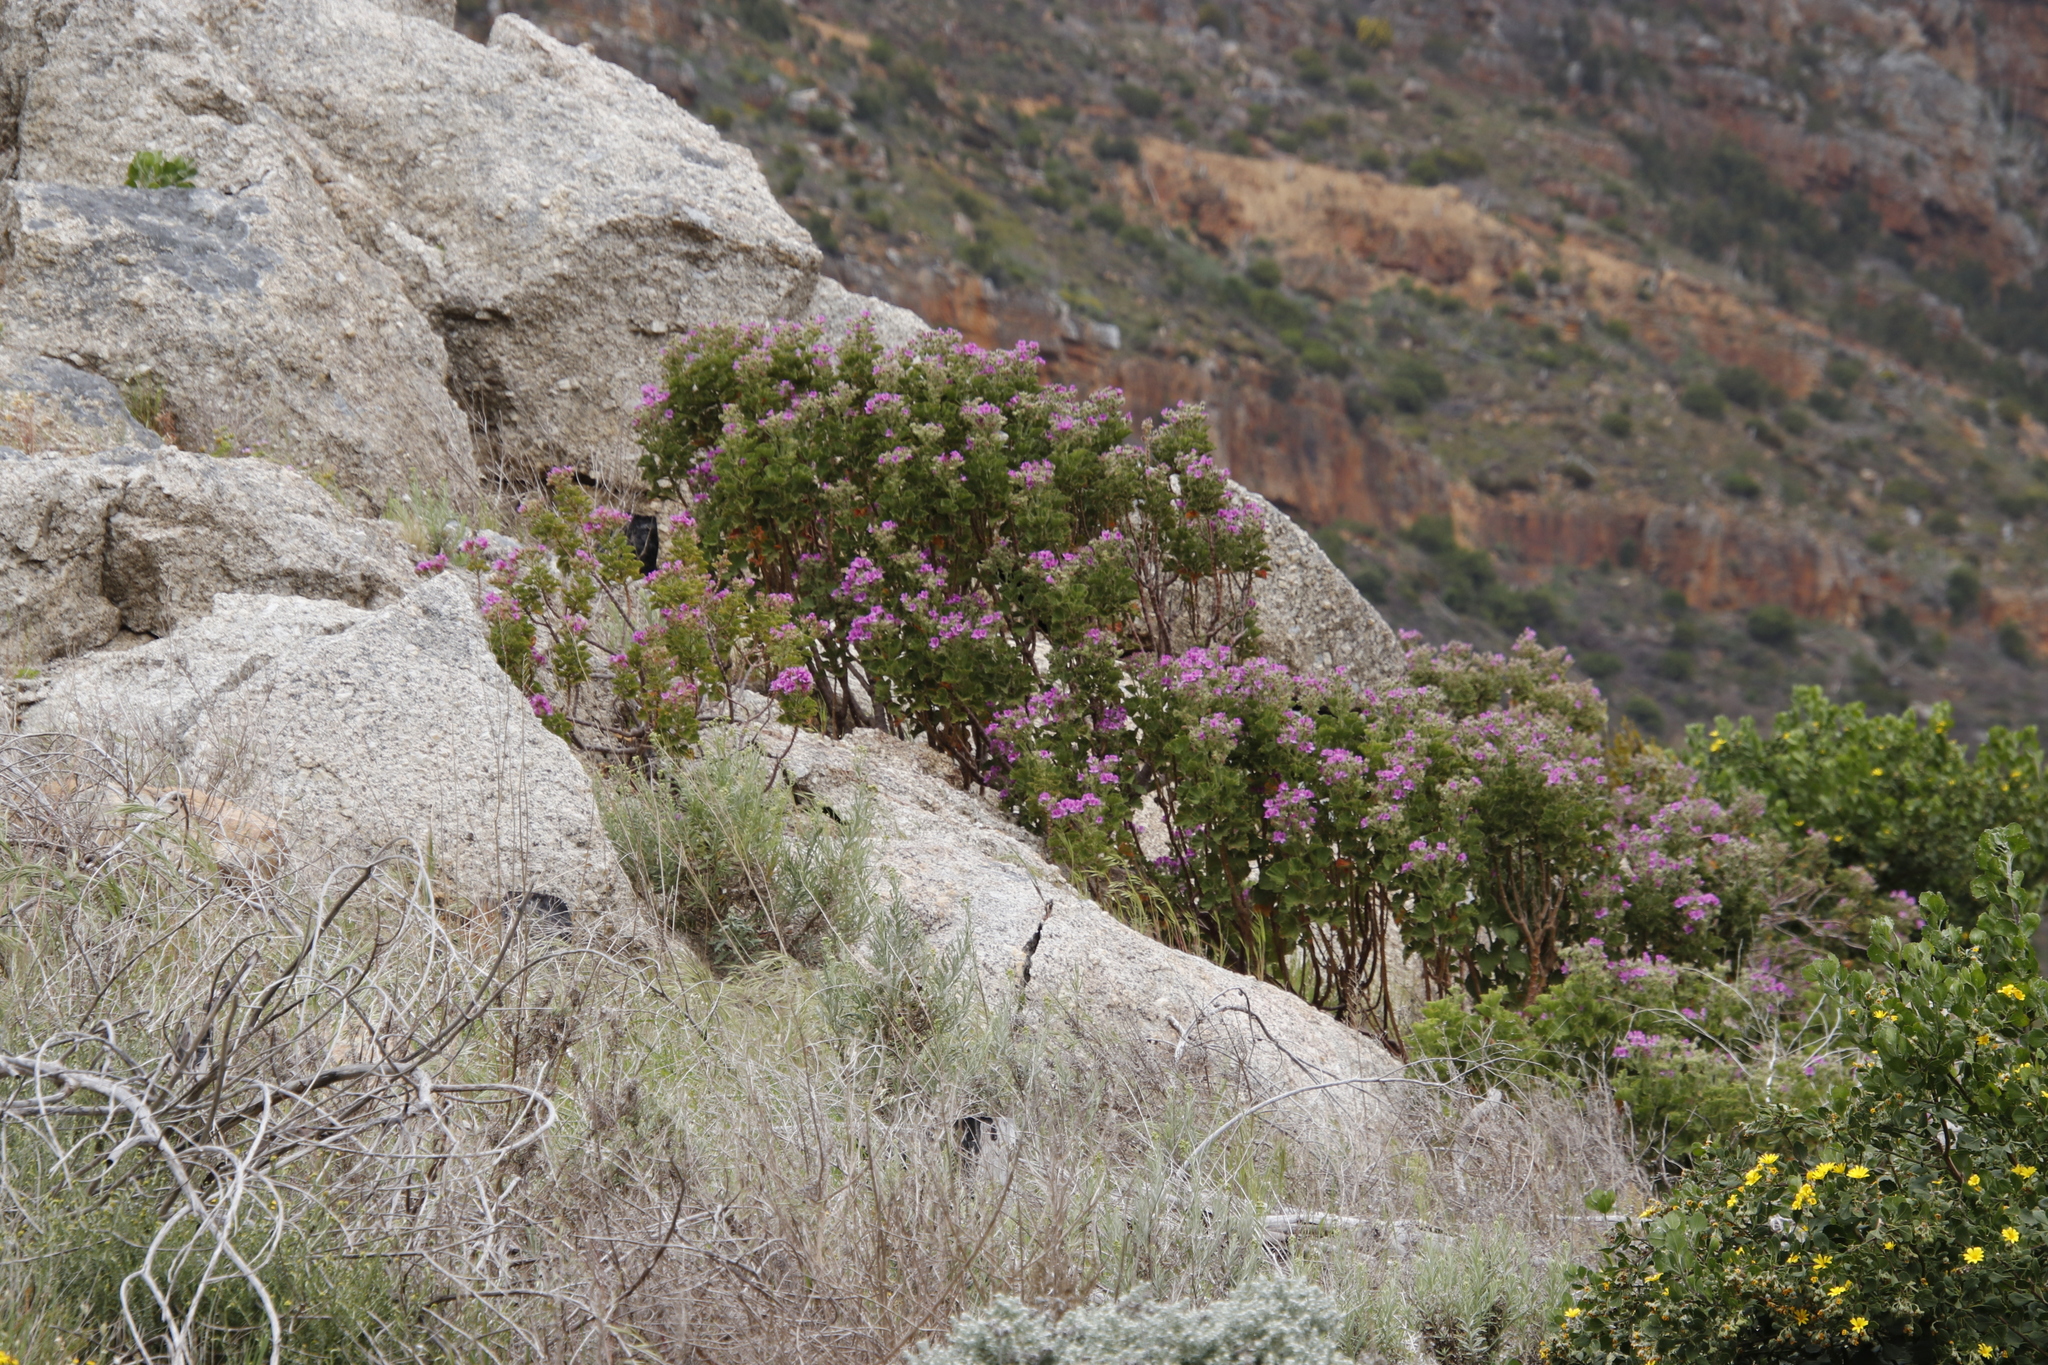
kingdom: Plantae
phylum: Tracheophyta
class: Magnoliopsida
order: Geraniales
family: Geraniaceae
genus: Pelargonium
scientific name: Pelargonium cucullatum
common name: Tree pelargonium
